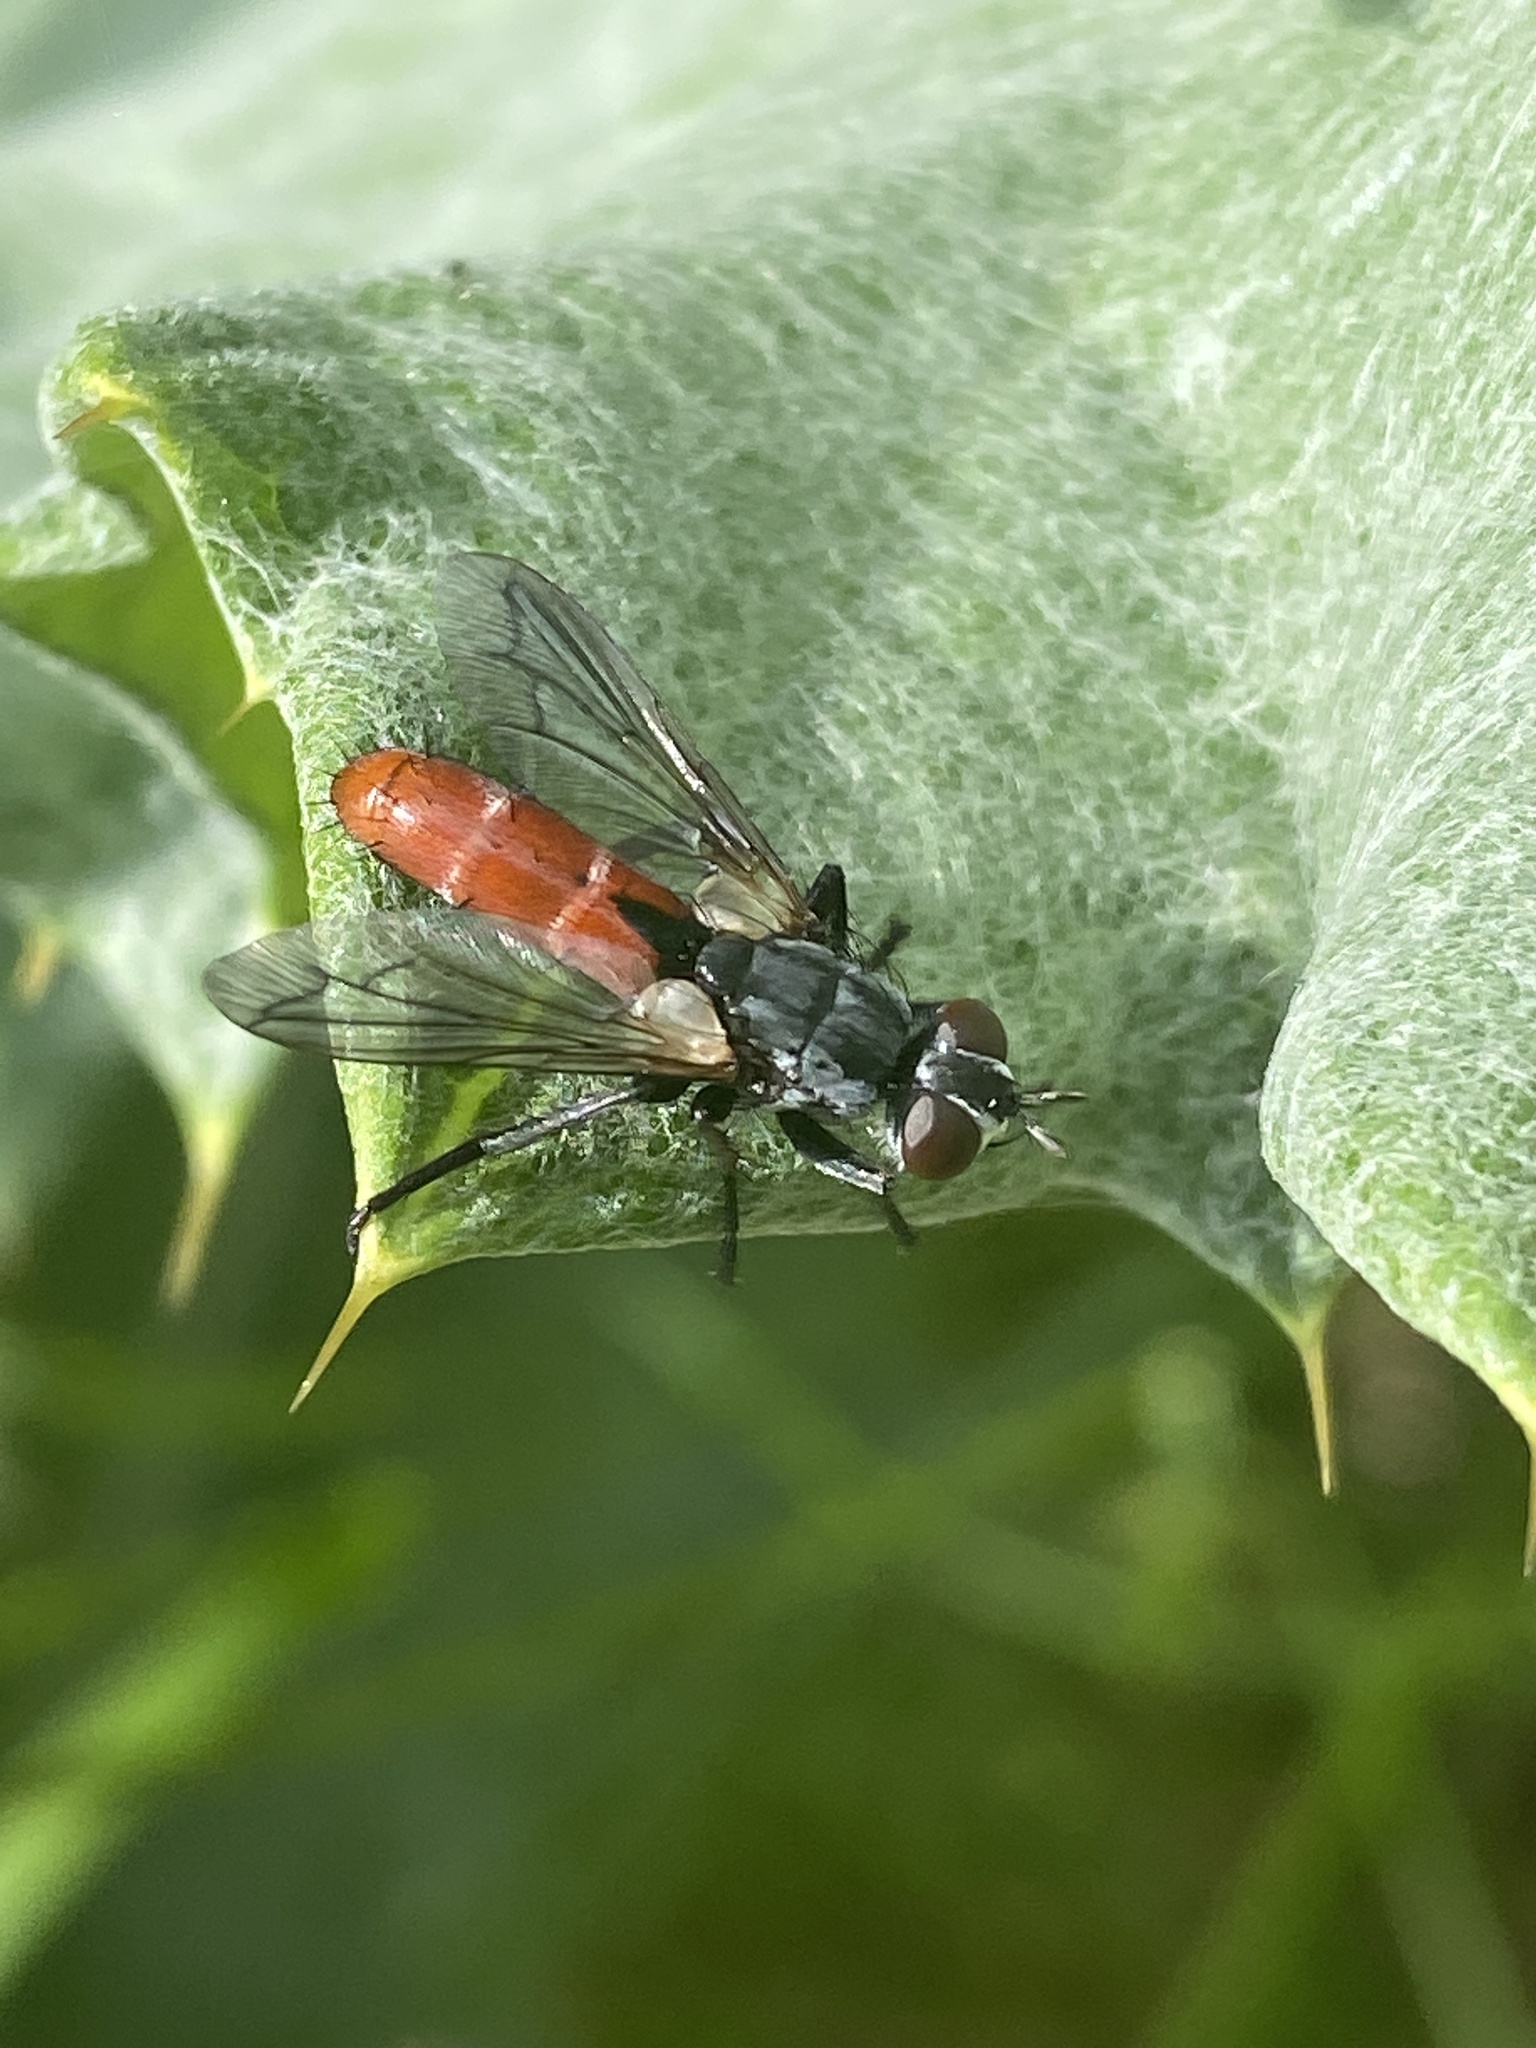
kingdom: Animalia
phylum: Arthropoda
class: Insecta
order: Diptera
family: Tachinidae
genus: Cylindromyia
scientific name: Cylindromyia bicolor
